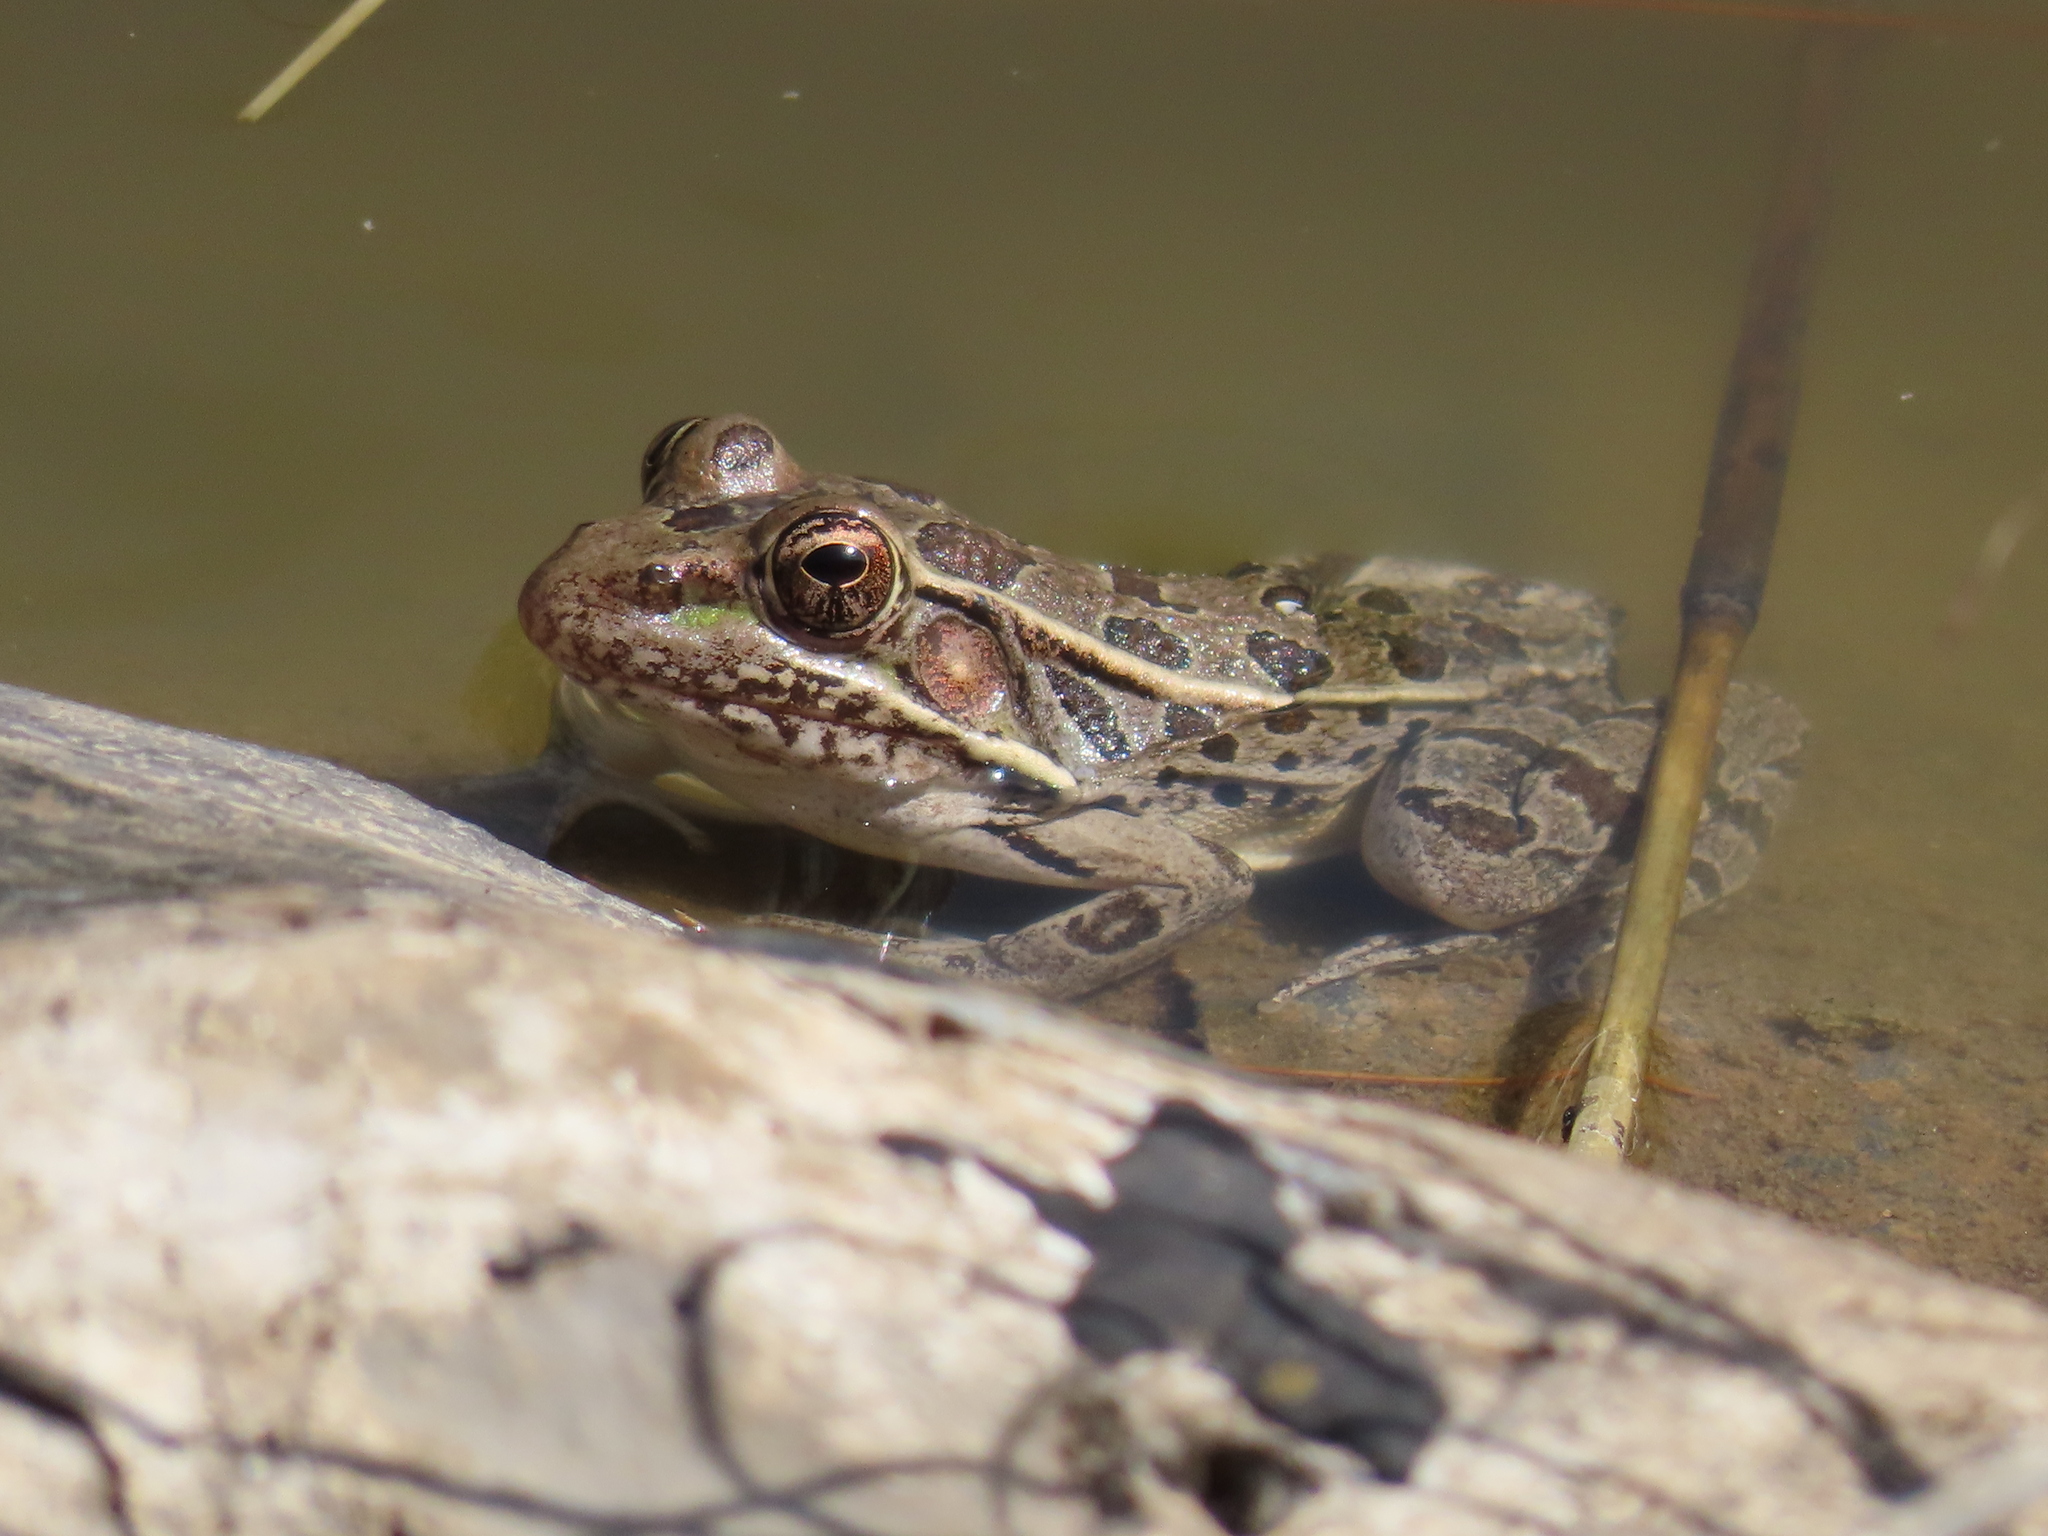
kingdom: Animalia
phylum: Chordata
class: Amphibia
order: Anura
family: Ranidae
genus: Lithobates
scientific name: Lithobates berlandieri
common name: Rio grande leopard frog
